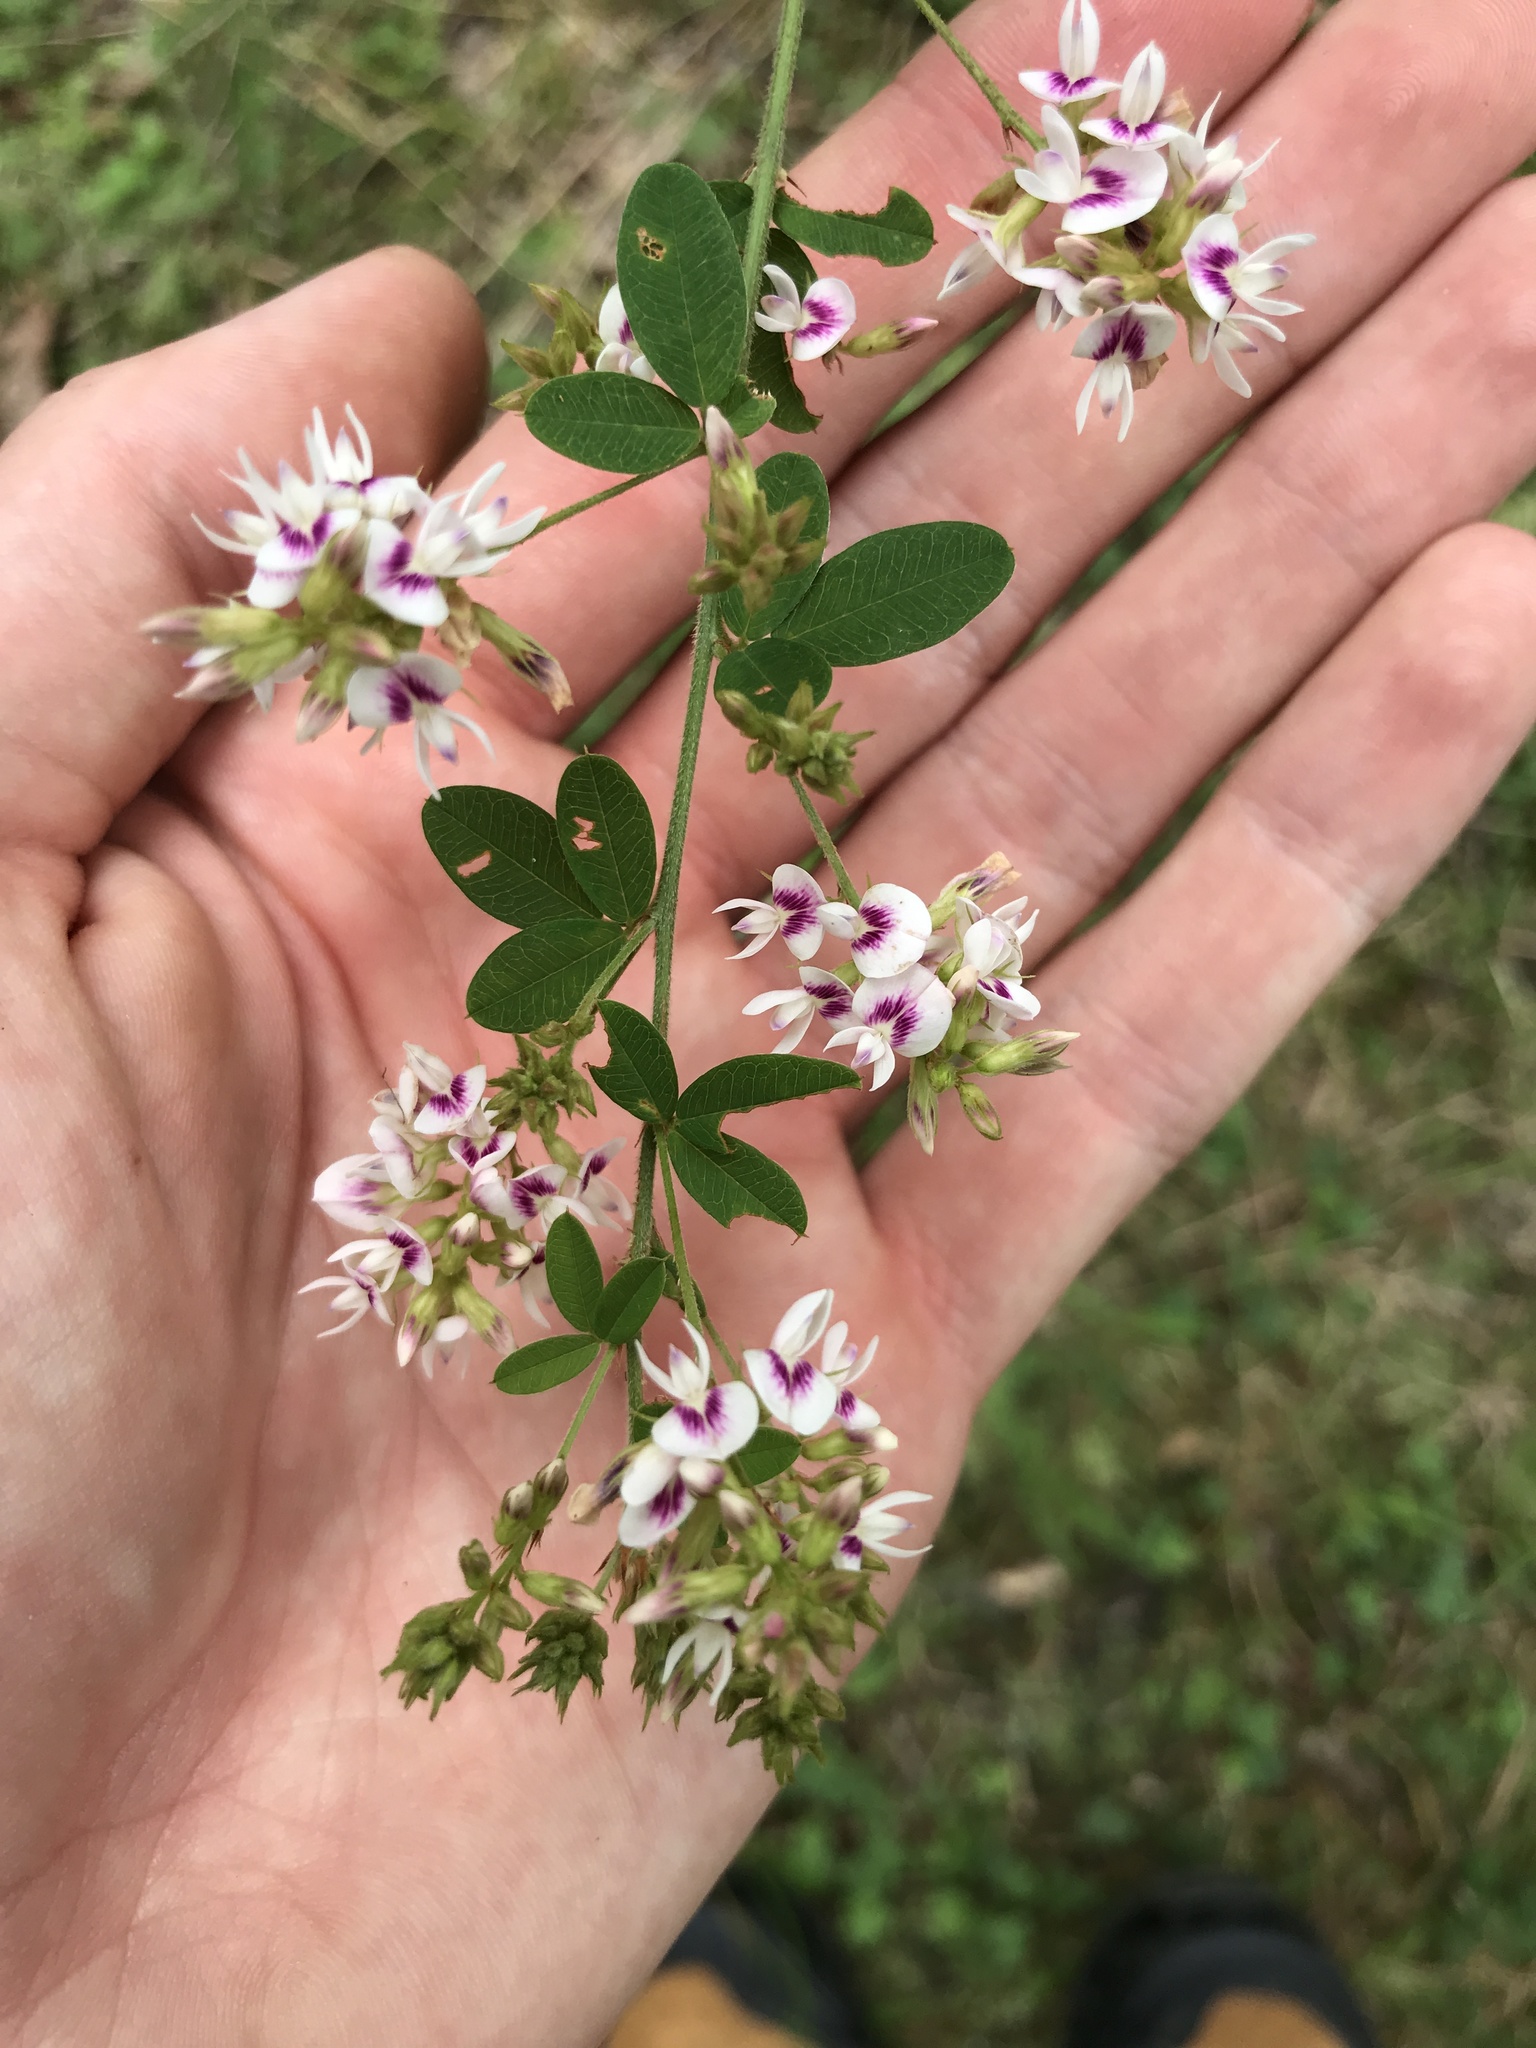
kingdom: Plantae
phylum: Tracheophyta
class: Magnoliopsida
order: Fabales
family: Fabaceae
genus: Lespedeza
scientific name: Lespedeza hirta
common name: Hairy lespedeza
